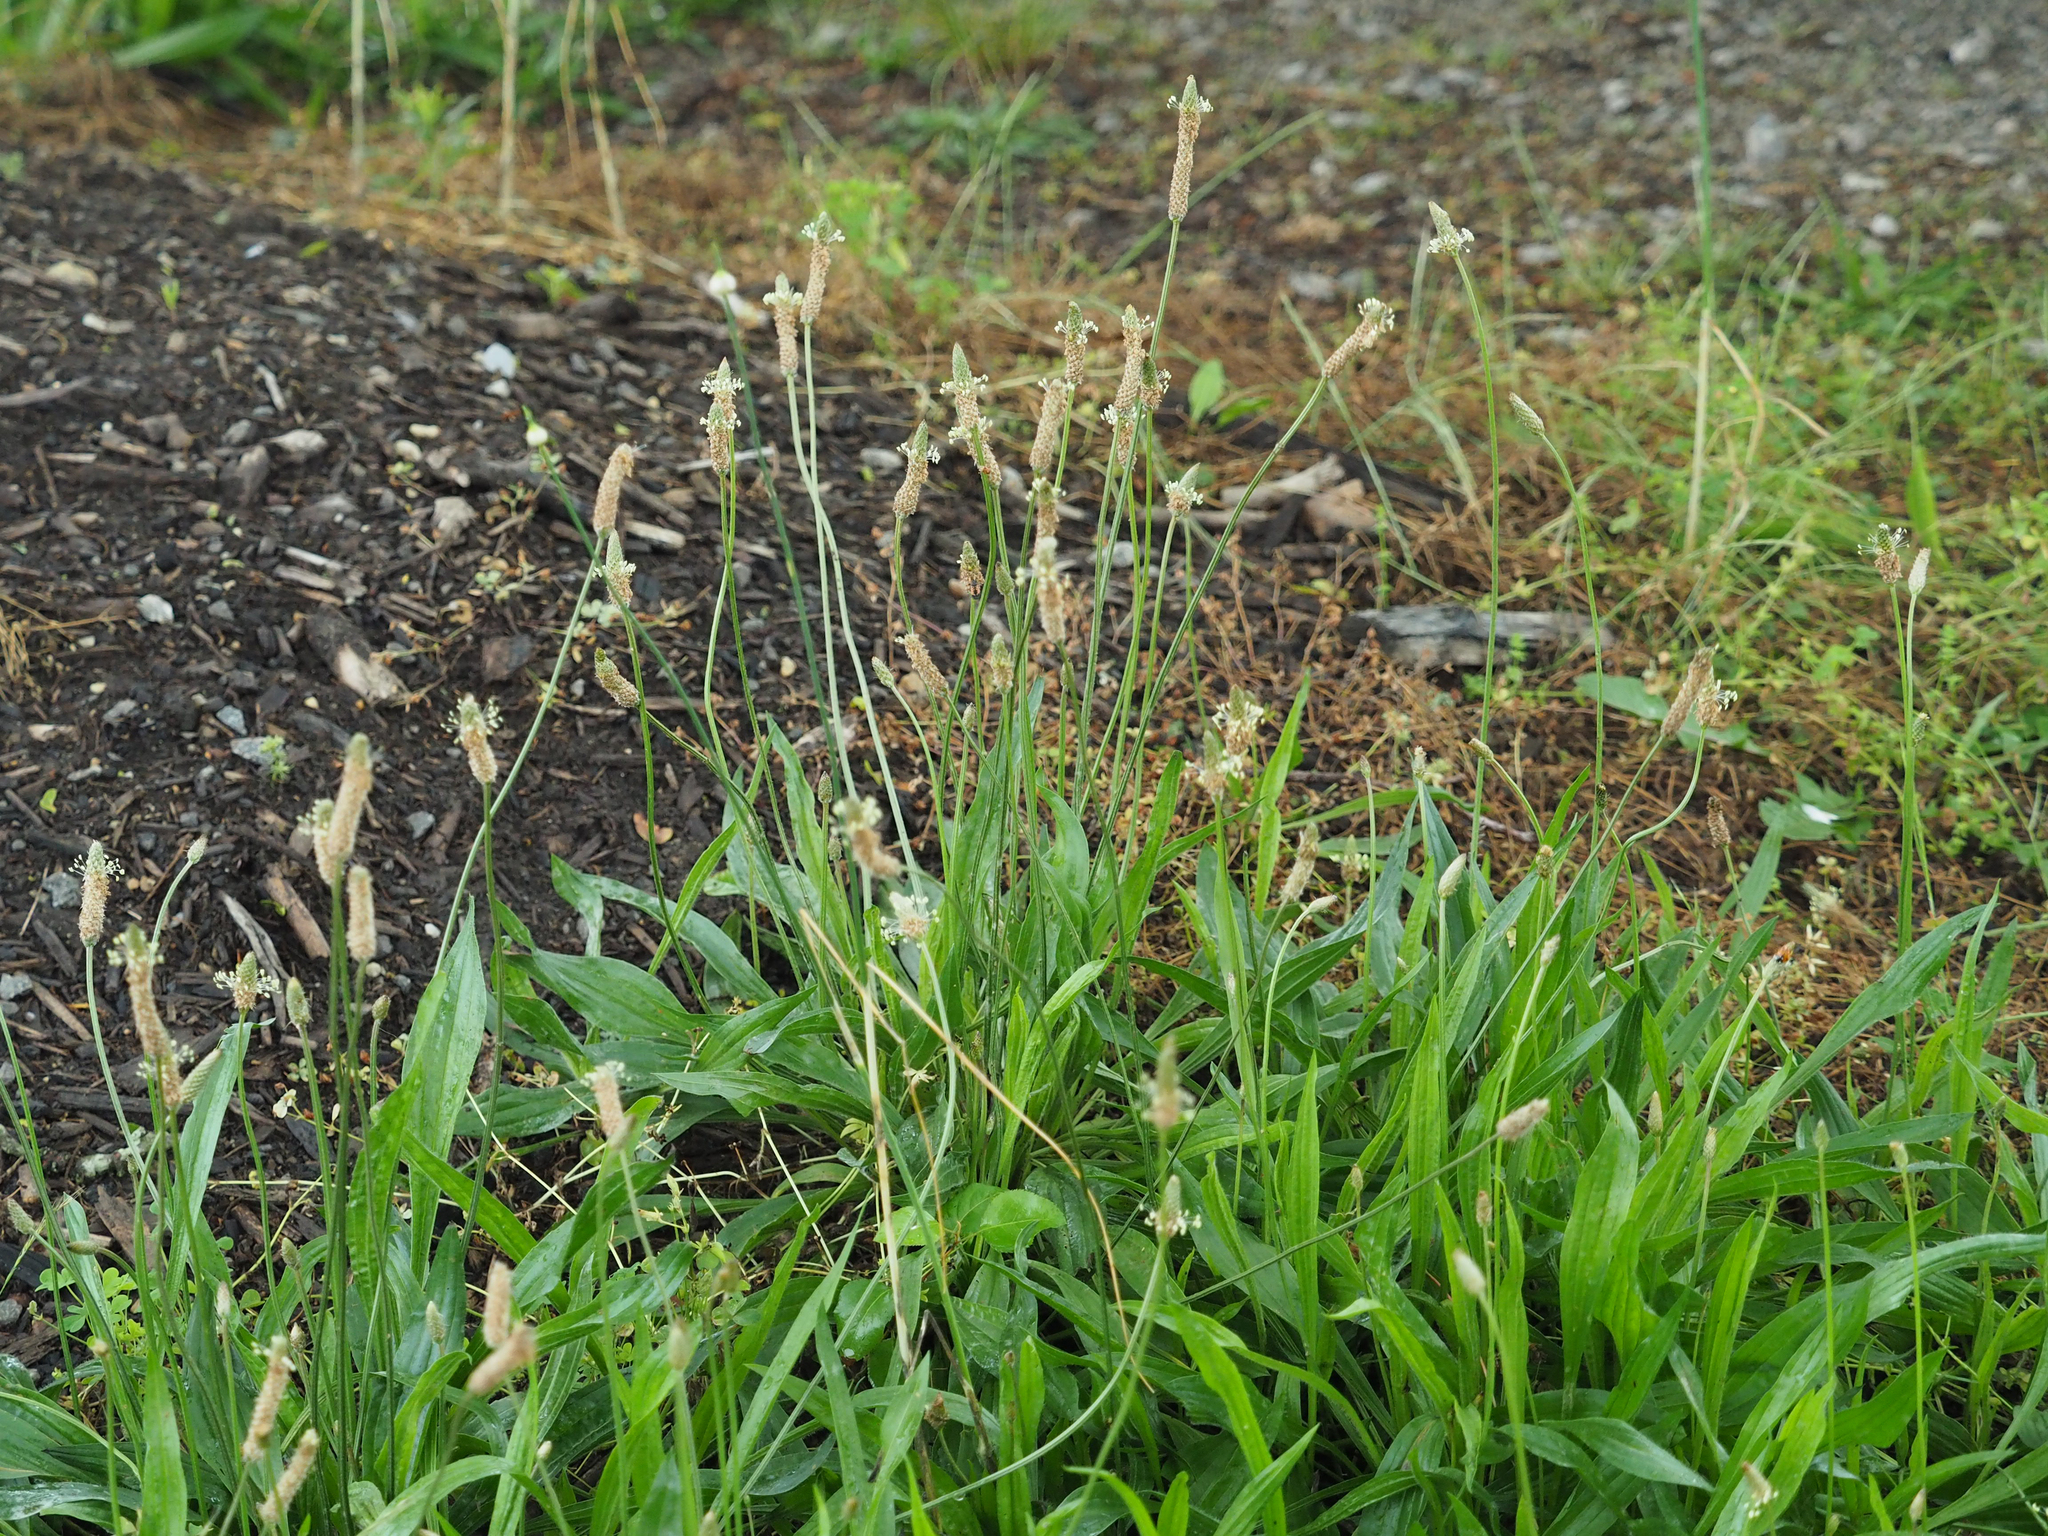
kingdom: Plantae
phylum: Tracheophyta
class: Magnoliopsida
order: Lamiales
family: Plantaginaceae
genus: Plantago
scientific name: Plantago lanceolata
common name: Ribwort plantain
